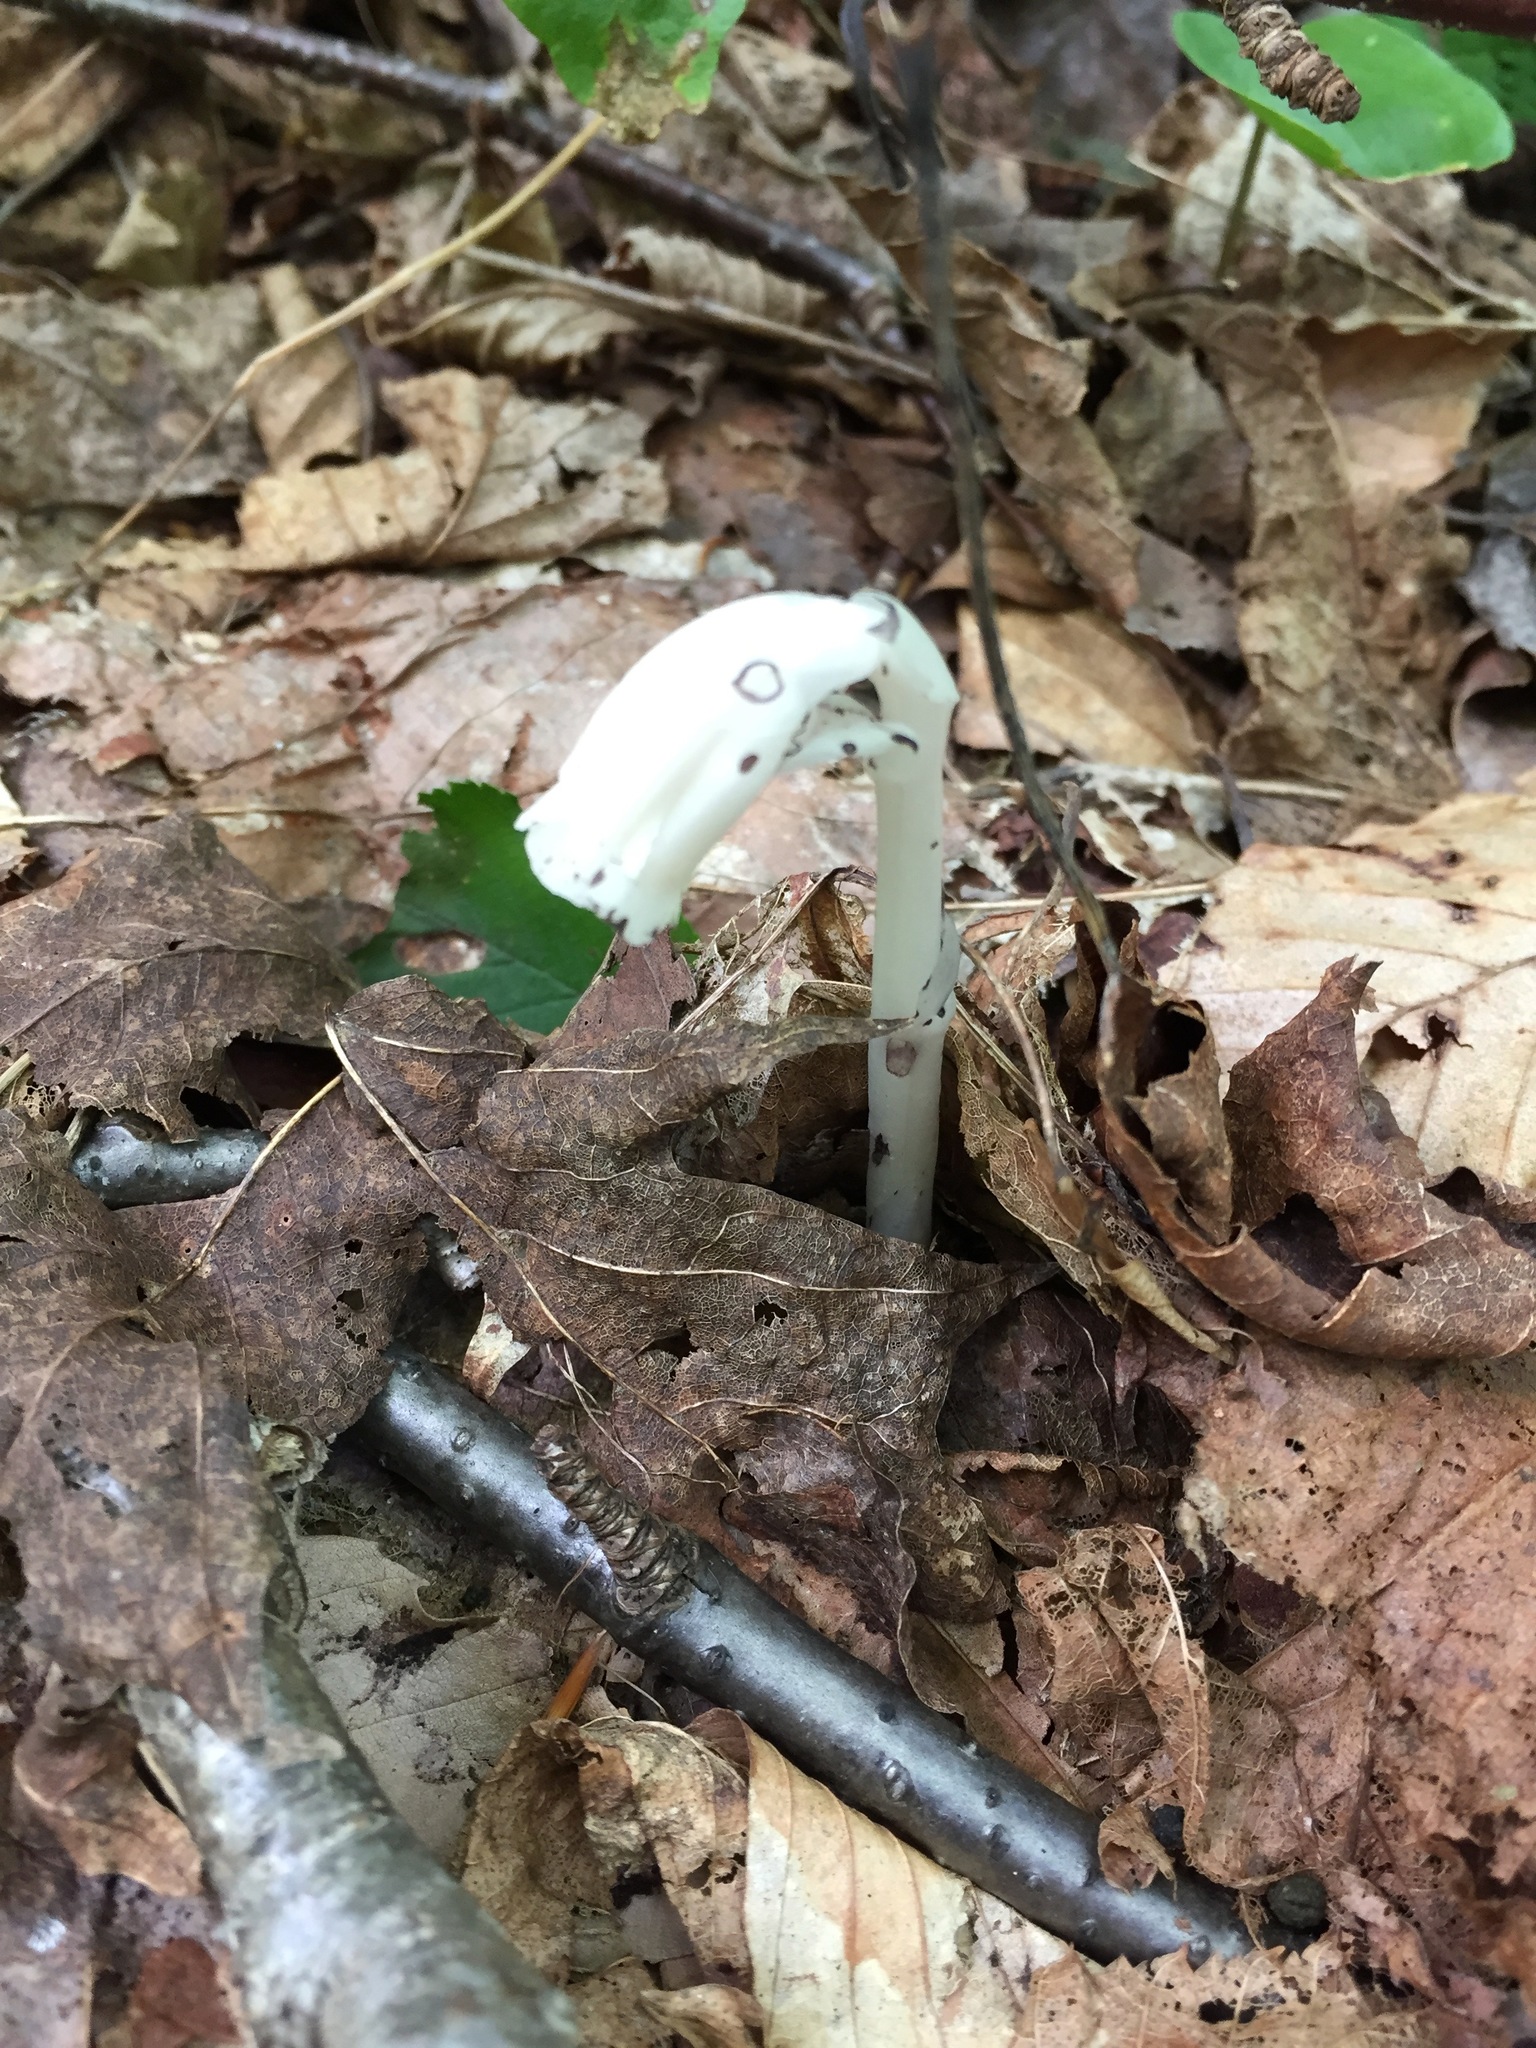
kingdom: Plantae
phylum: Tracheophyta
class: Magnoliopsida
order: Ericales
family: Ericaceae
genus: Monotropa
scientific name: Monotropa uniflora
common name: Convulsion root
